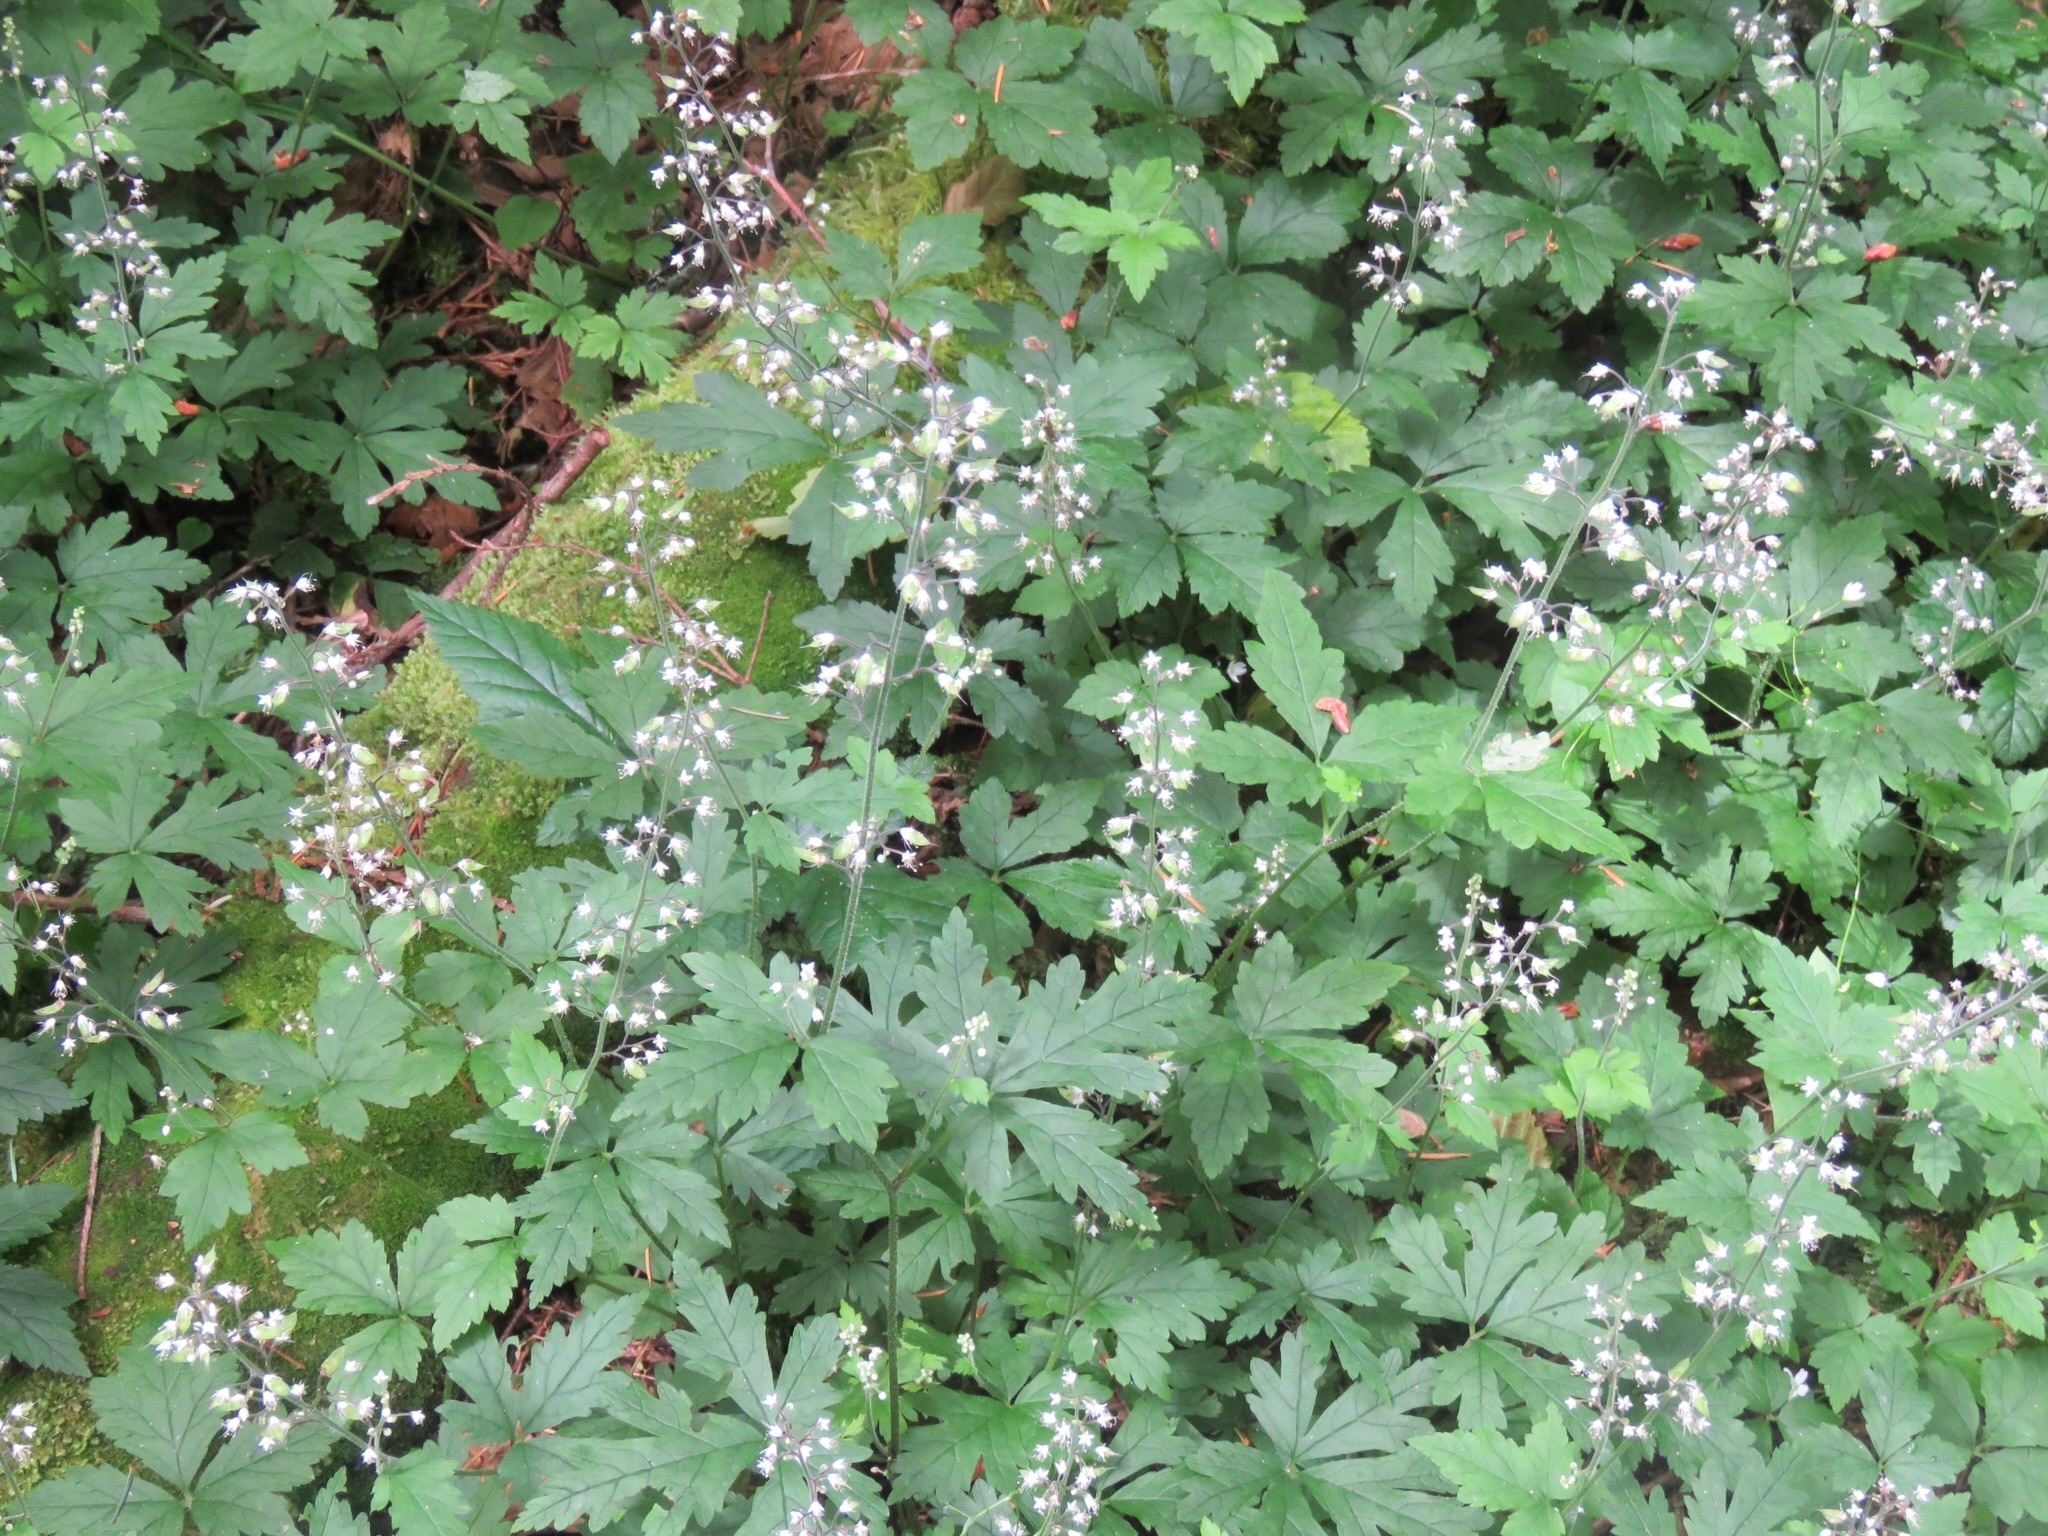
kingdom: Plantae
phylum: Tracheophyta
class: Magnoliopsida
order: Saxifragales
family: Saxifragaceae
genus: Tiarella
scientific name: Tiarella trifoliata
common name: Sugar-scoop
